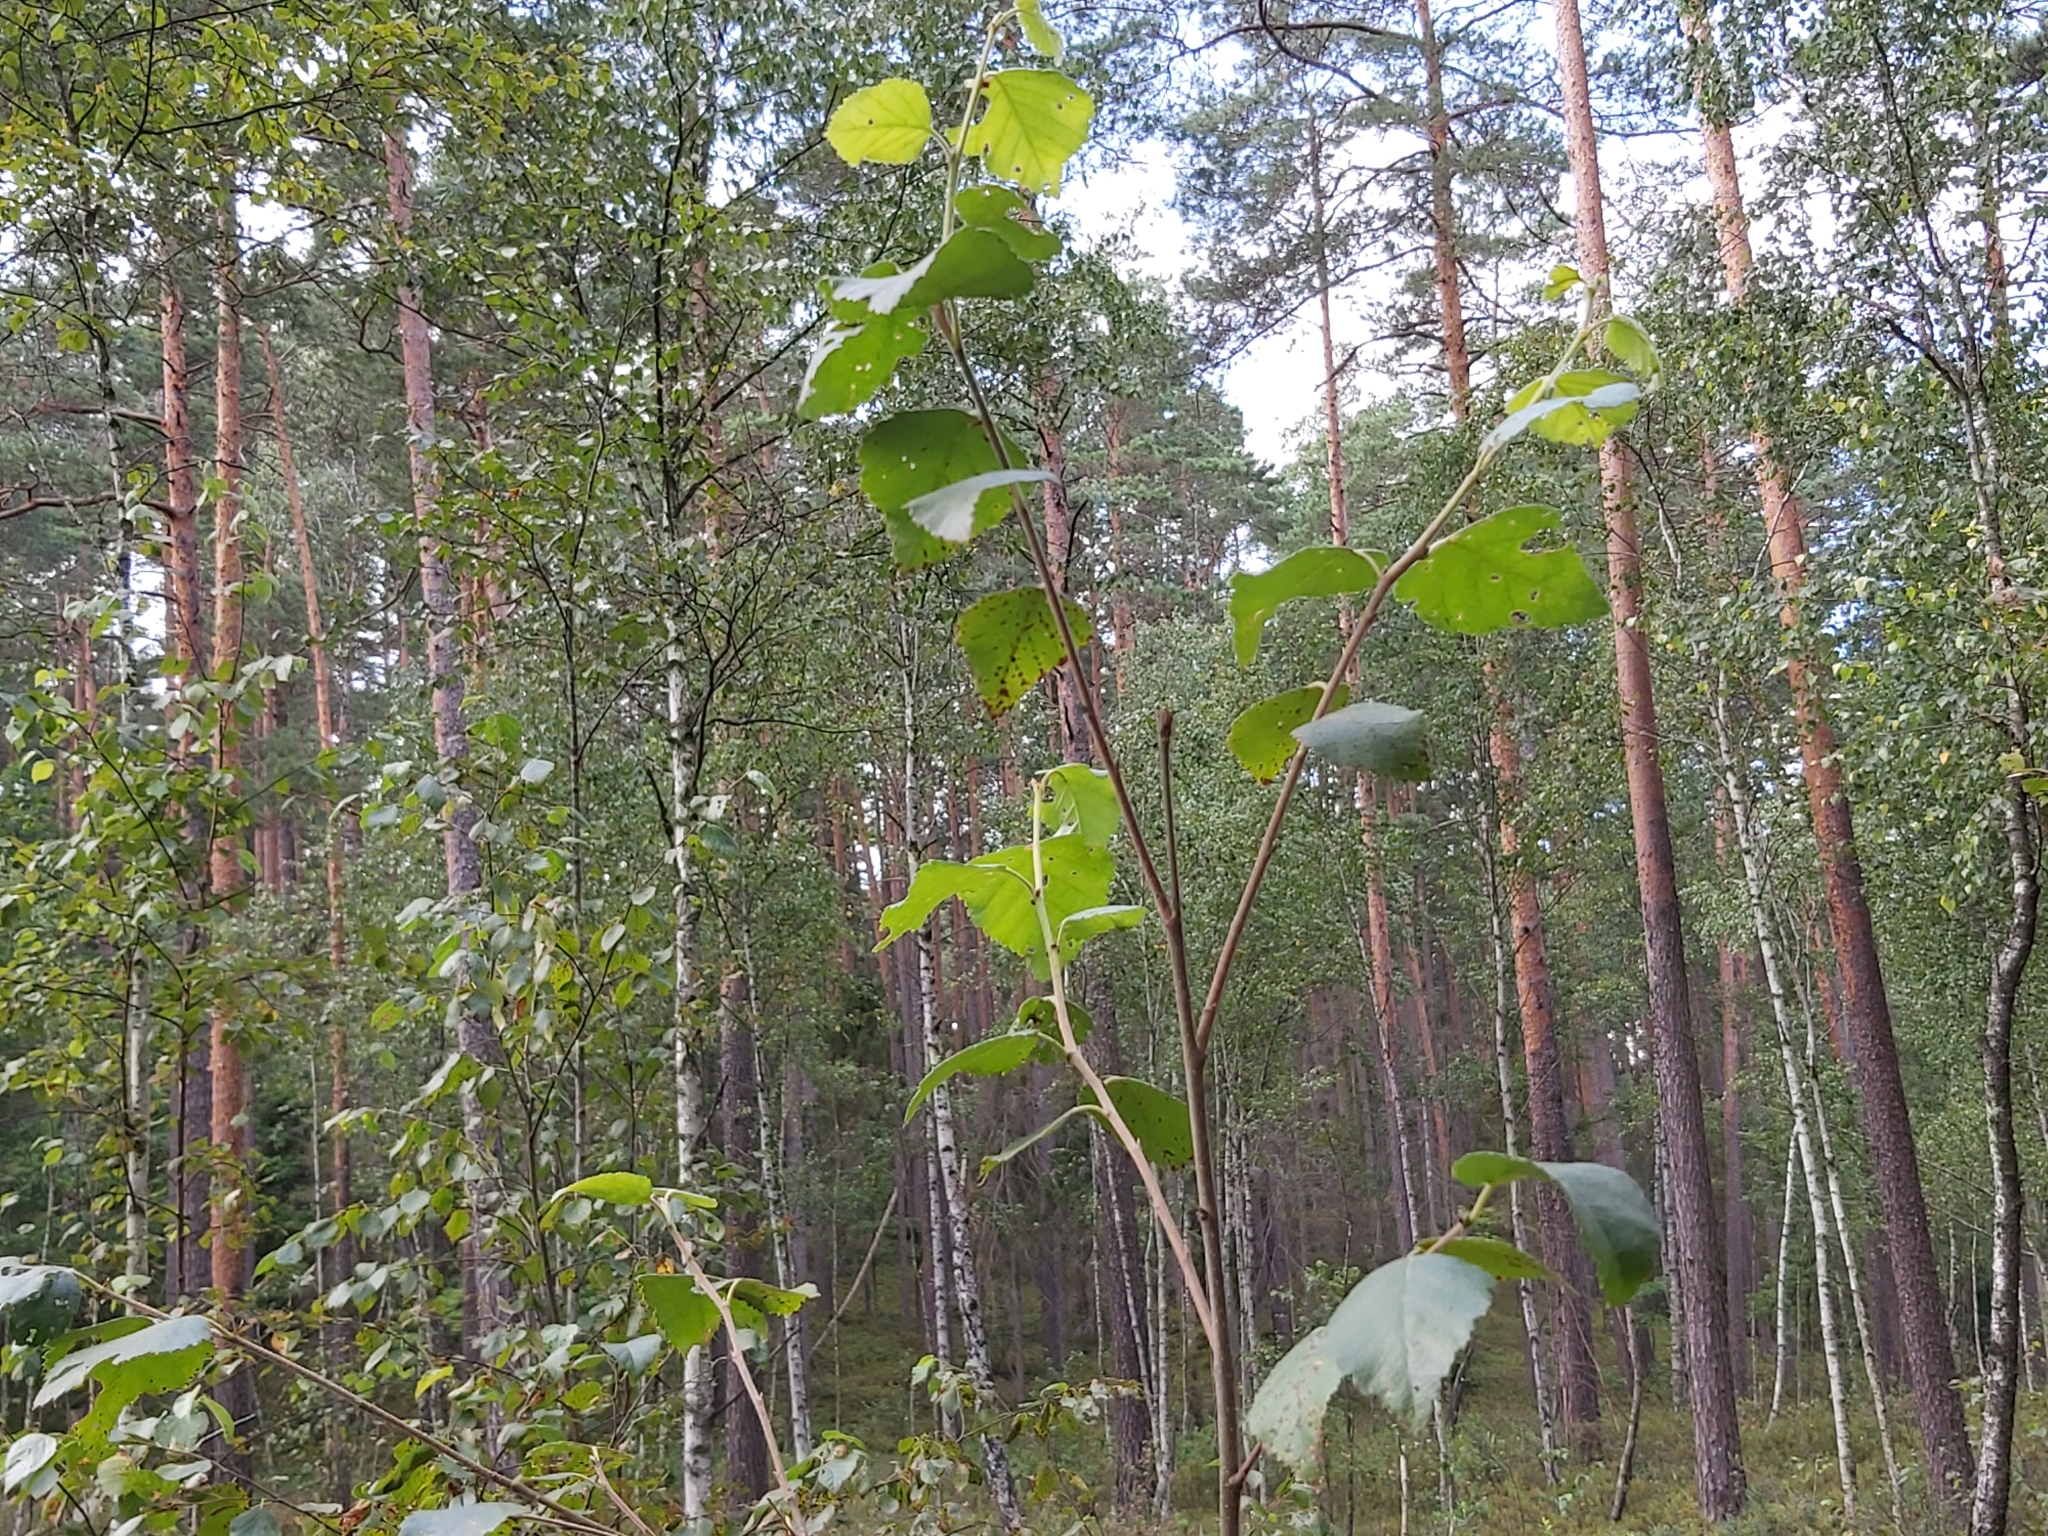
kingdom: Plantae
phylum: Tracheophyta
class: Magnoliopsida
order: Fagales
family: Betulaceae
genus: Betula
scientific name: Betula pubescens
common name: Downy birch
